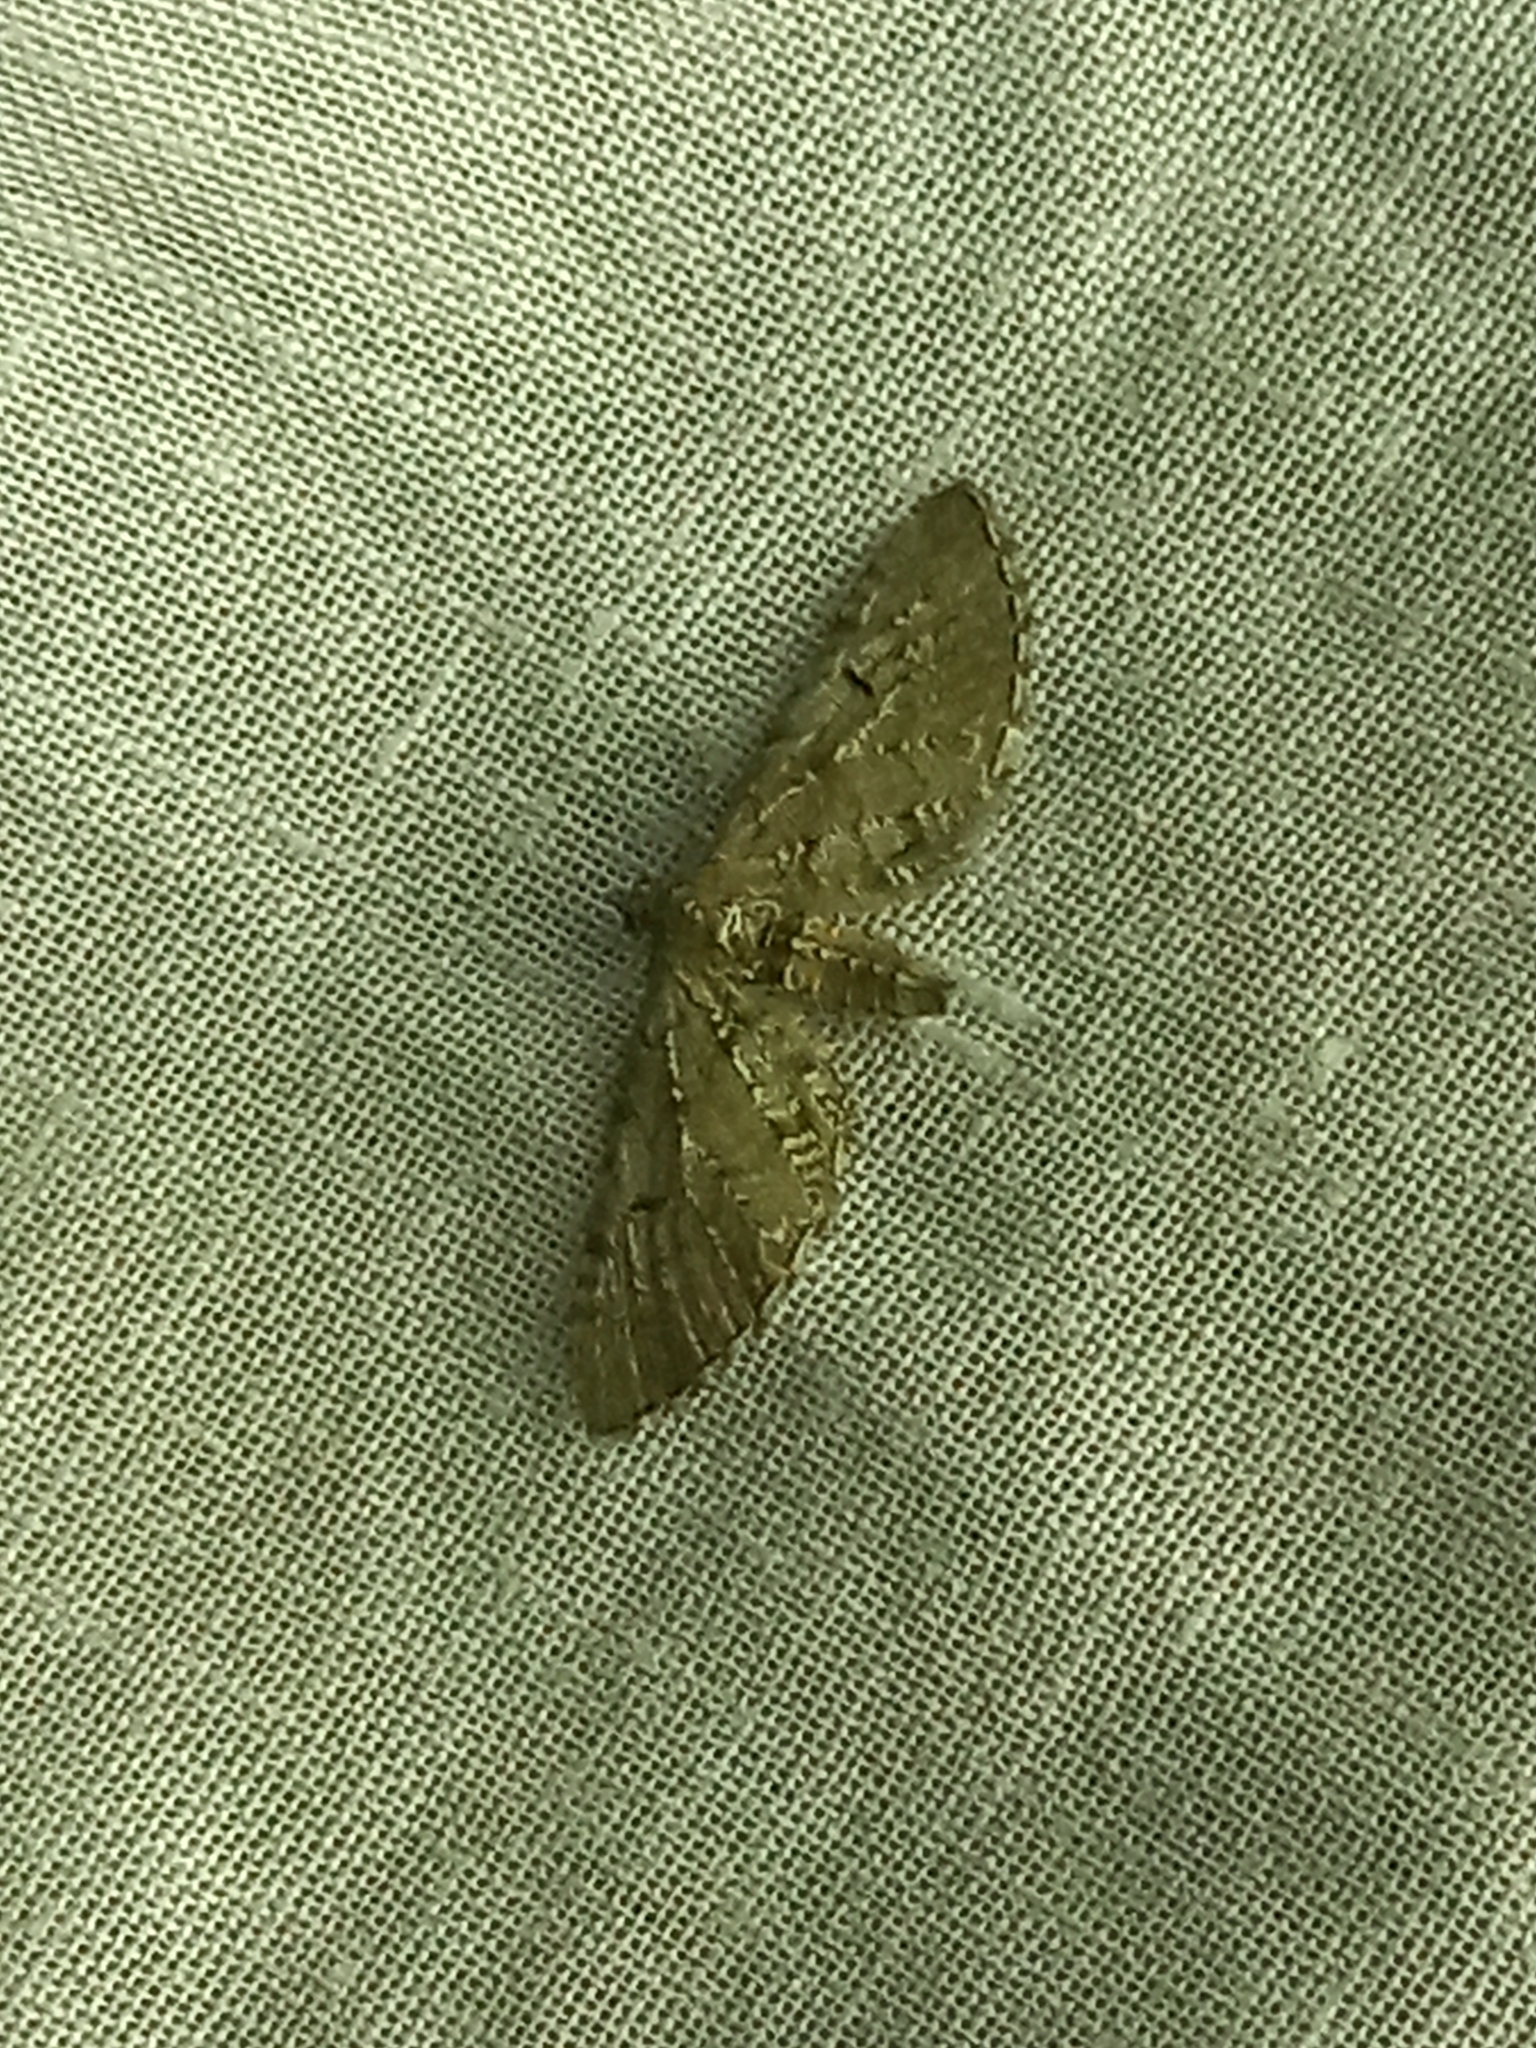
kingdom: Animalia
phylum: Arthropoda
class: Insecta
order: Lepidoptera
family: Geometridae
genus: Eupithecia
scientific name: Eupithecia absinthiata
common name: Wormwood pug
